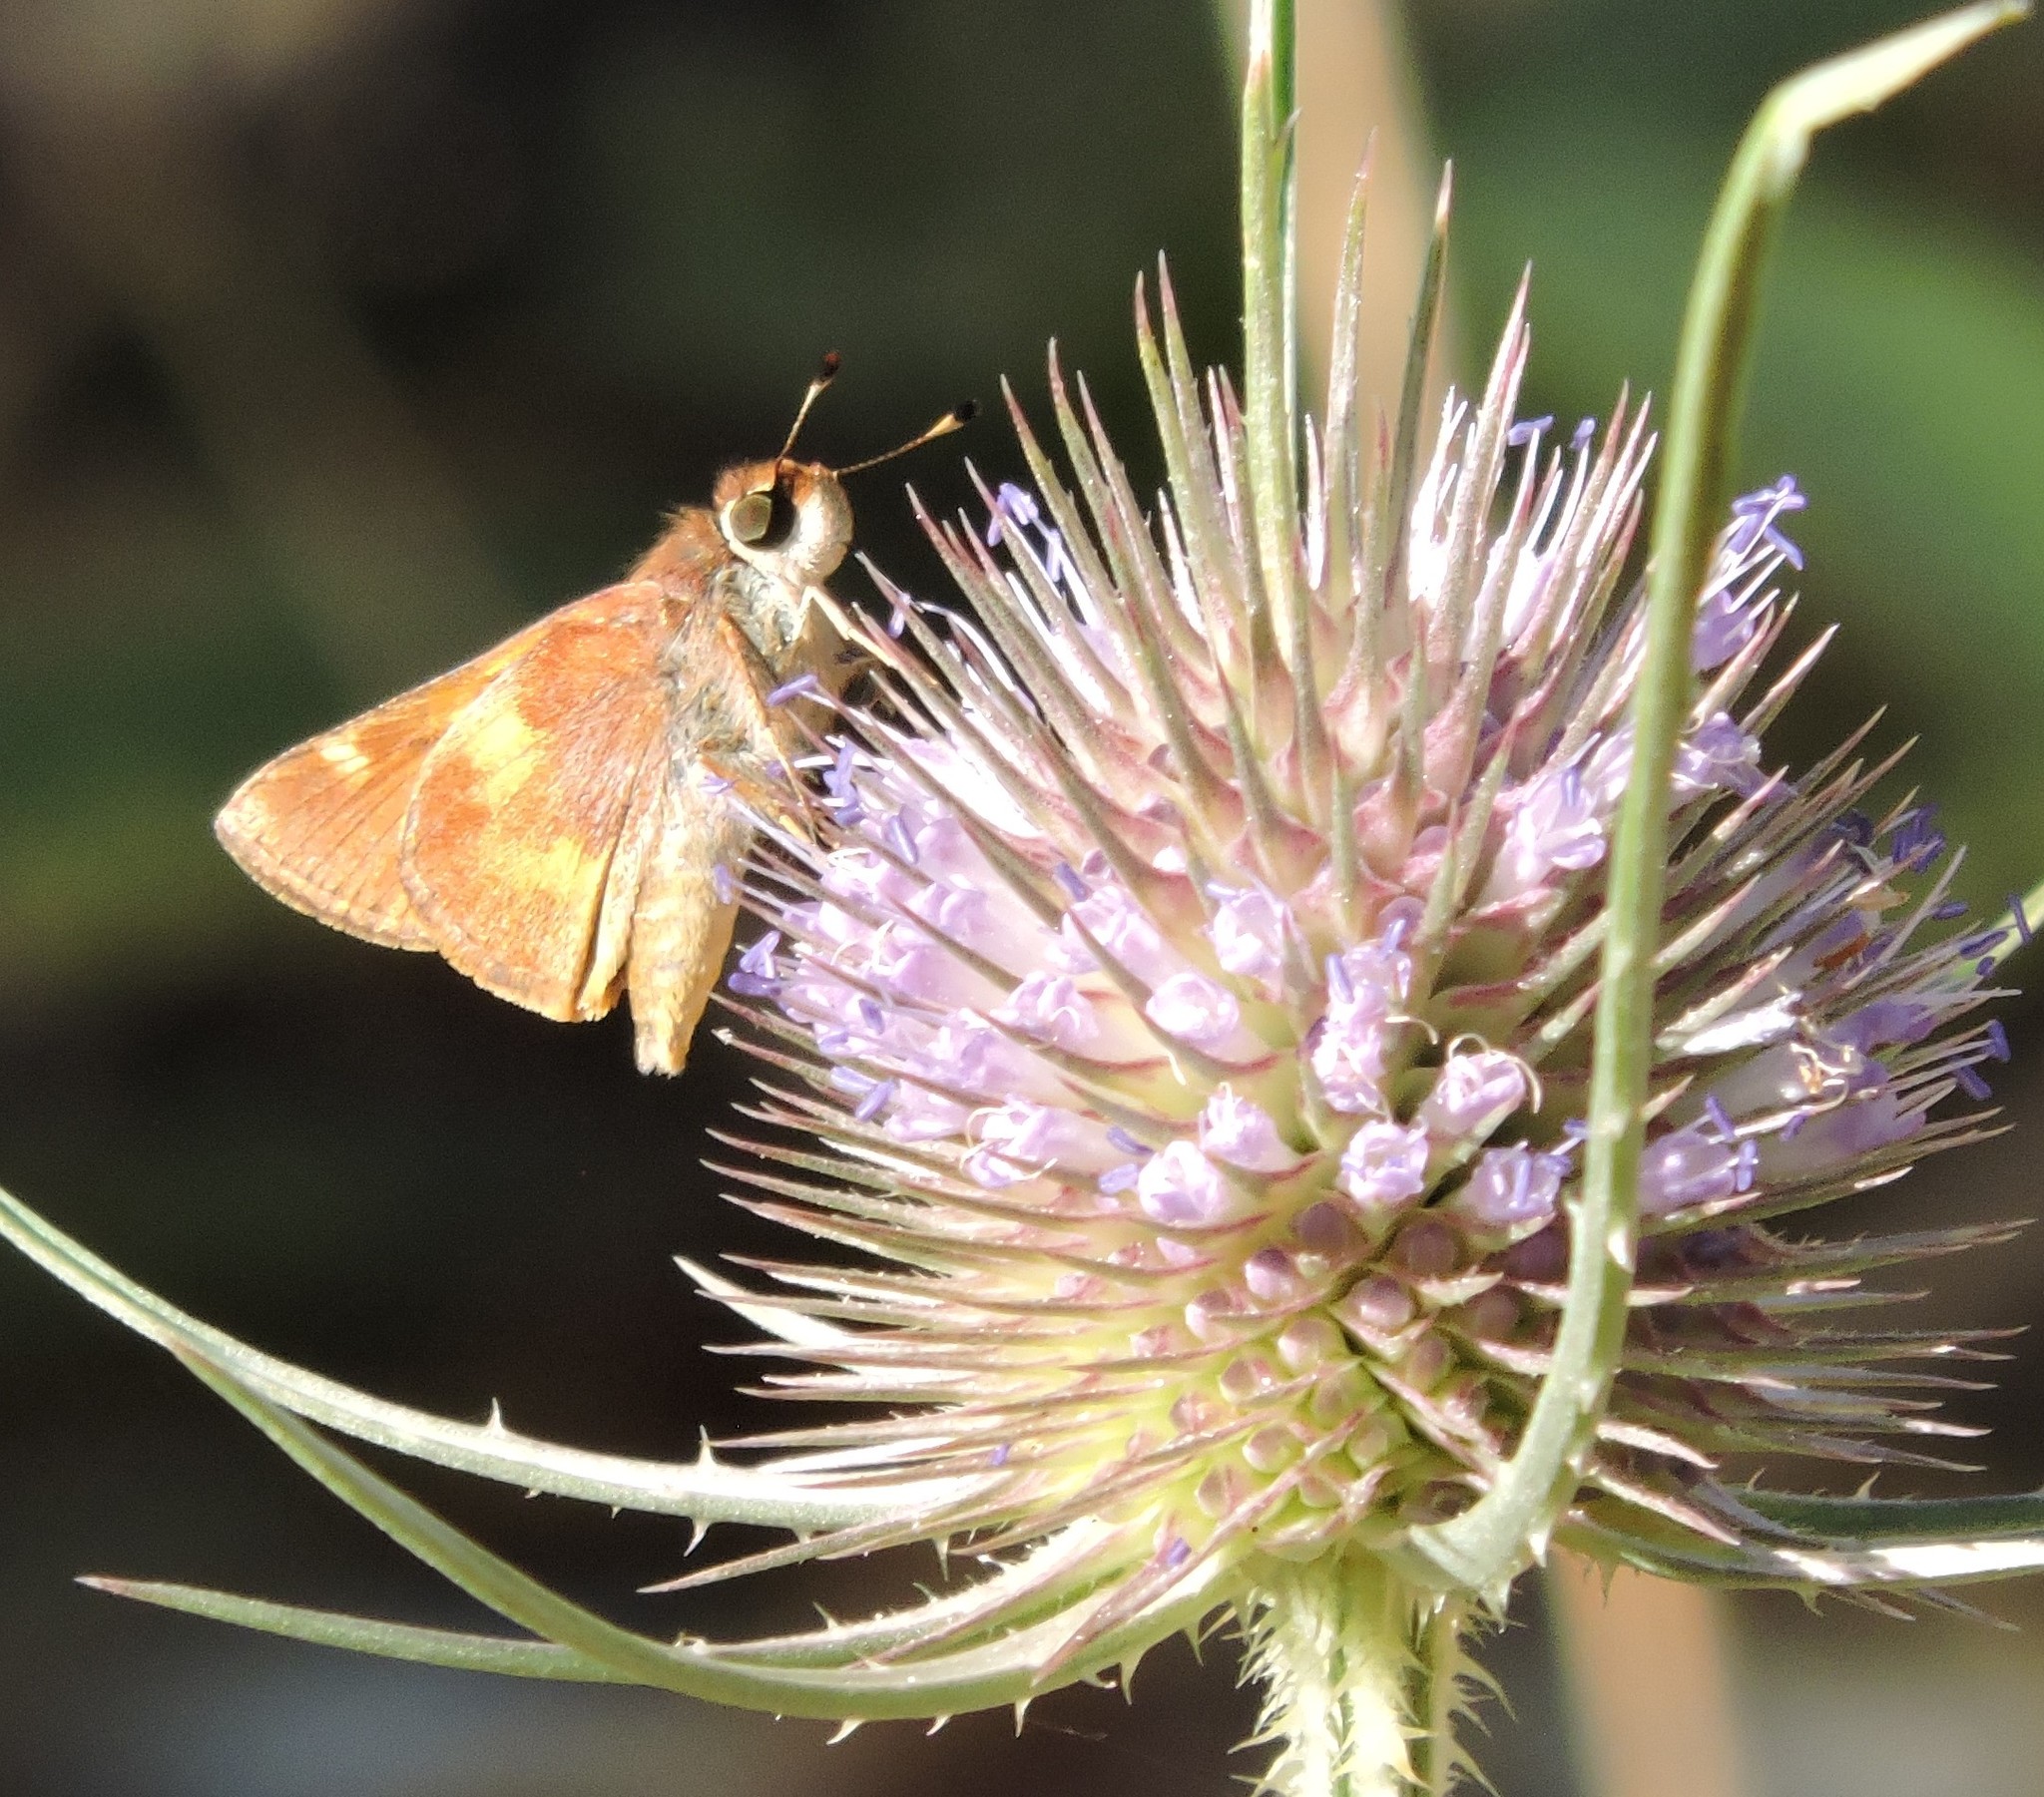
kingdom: Animalia
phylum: Arthropoda
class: Insecta
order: Lepidoptera
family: Hesperiidae
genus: Ochlodes
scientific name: Ochlodes sylvanoides
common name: Woodland skipper
